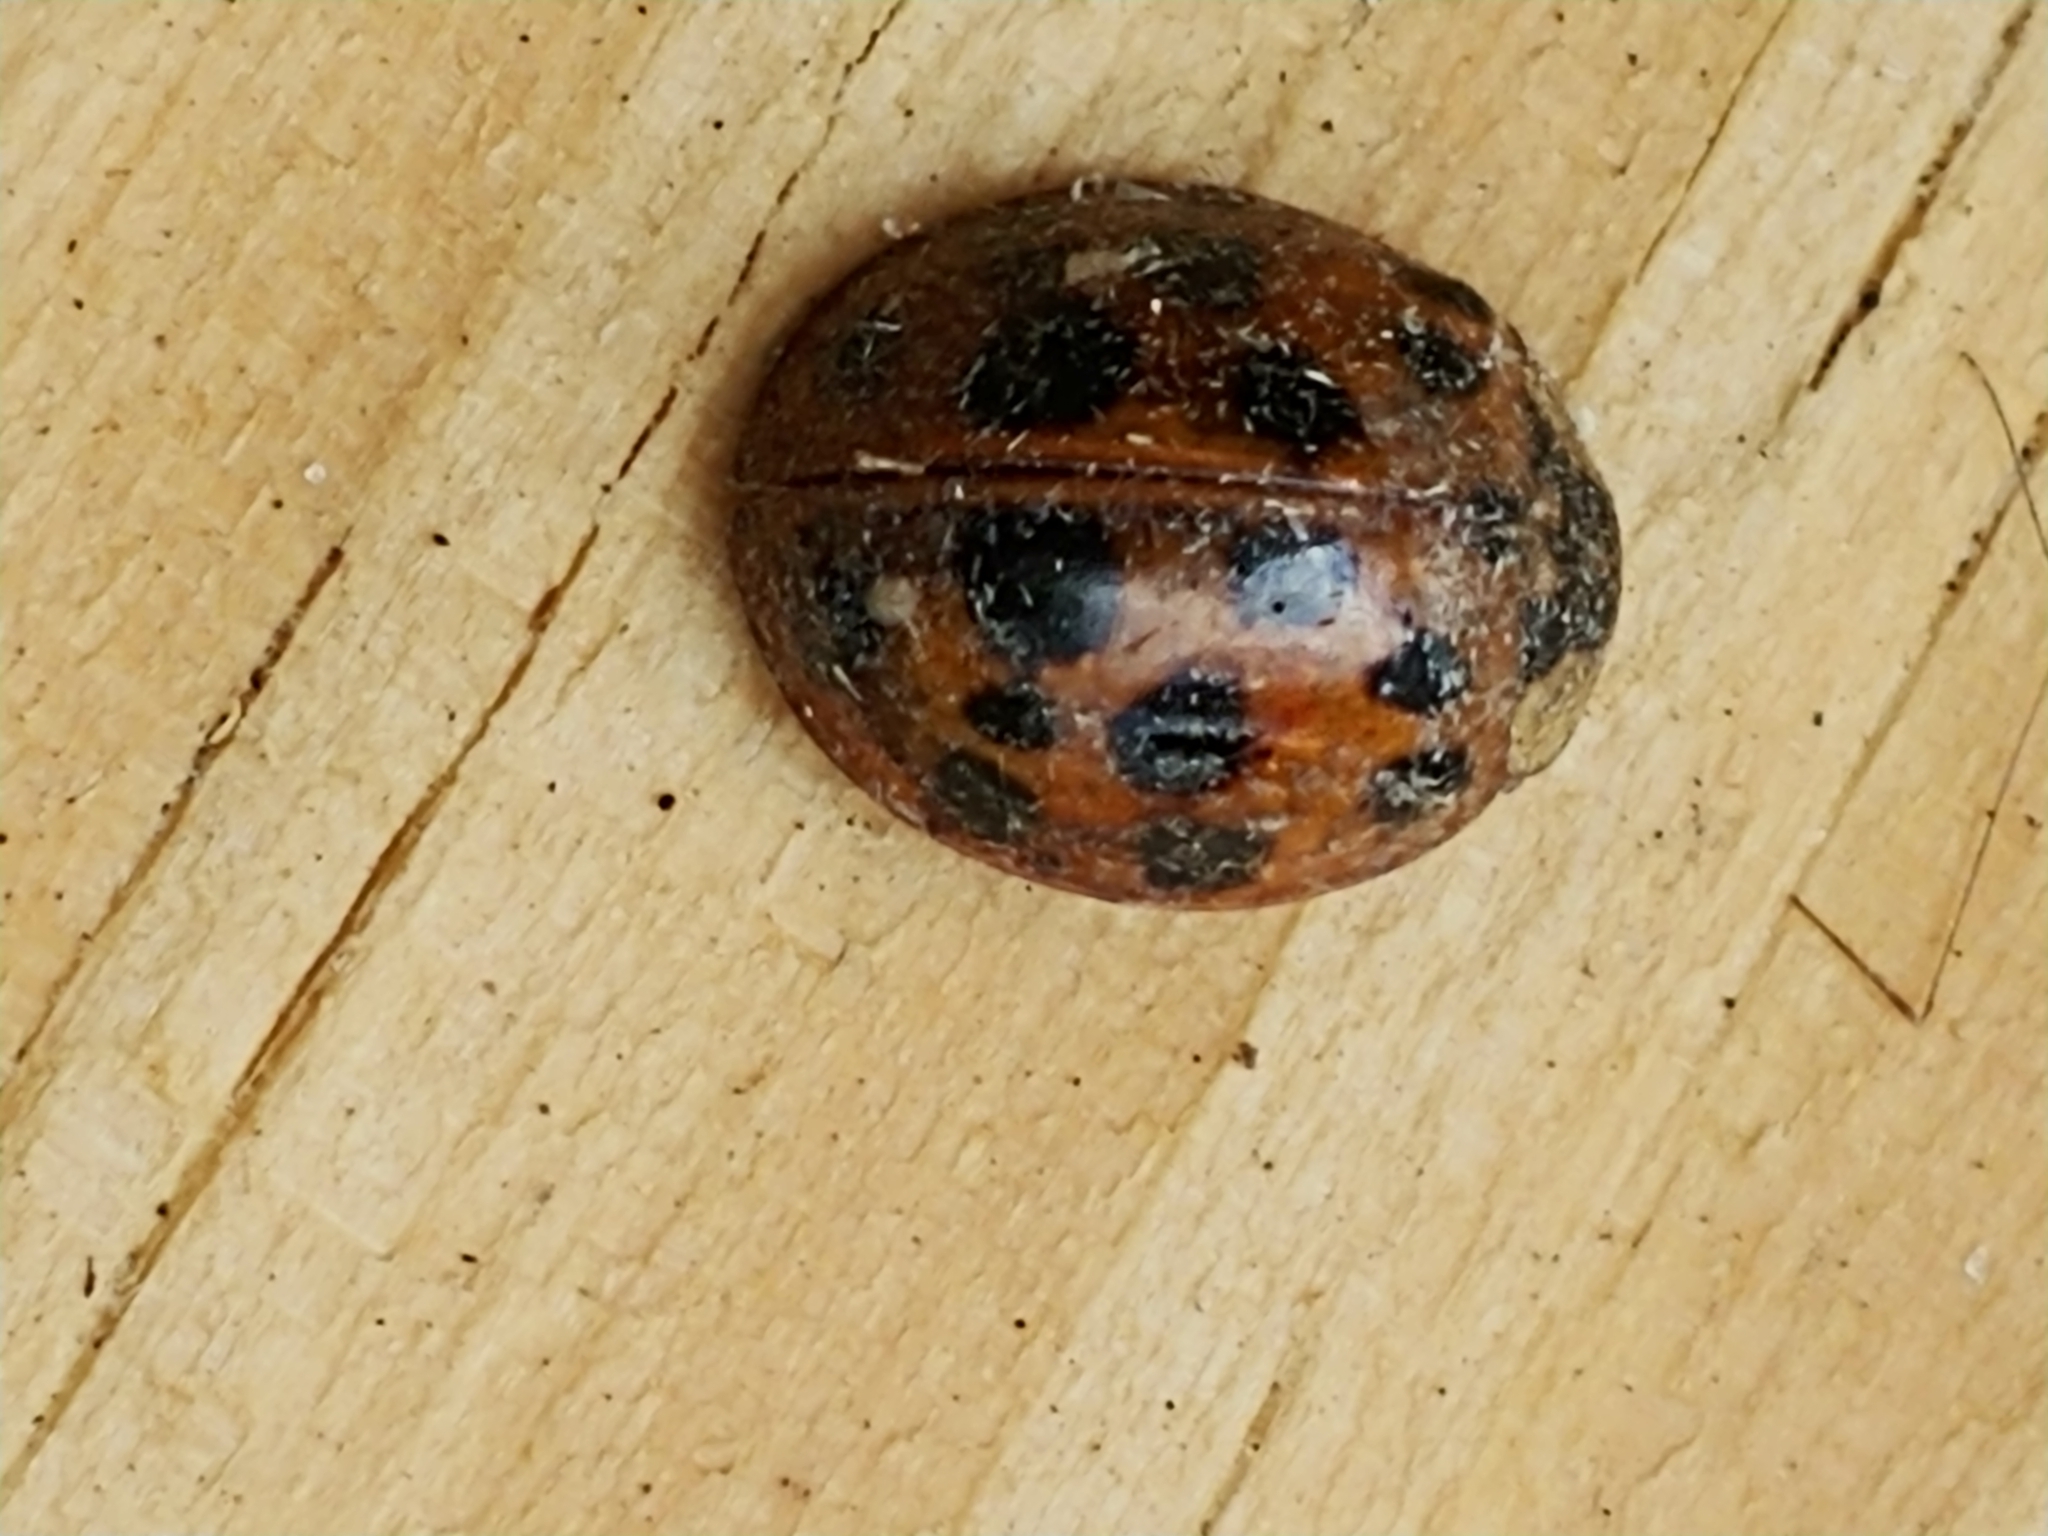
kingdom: Animalia
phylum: Arthropoda
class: Insecta
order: Coleoptera
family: Coccinellidae
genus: Harmonia
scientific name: Harmonia axyridis
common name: Harlequin ladybird
